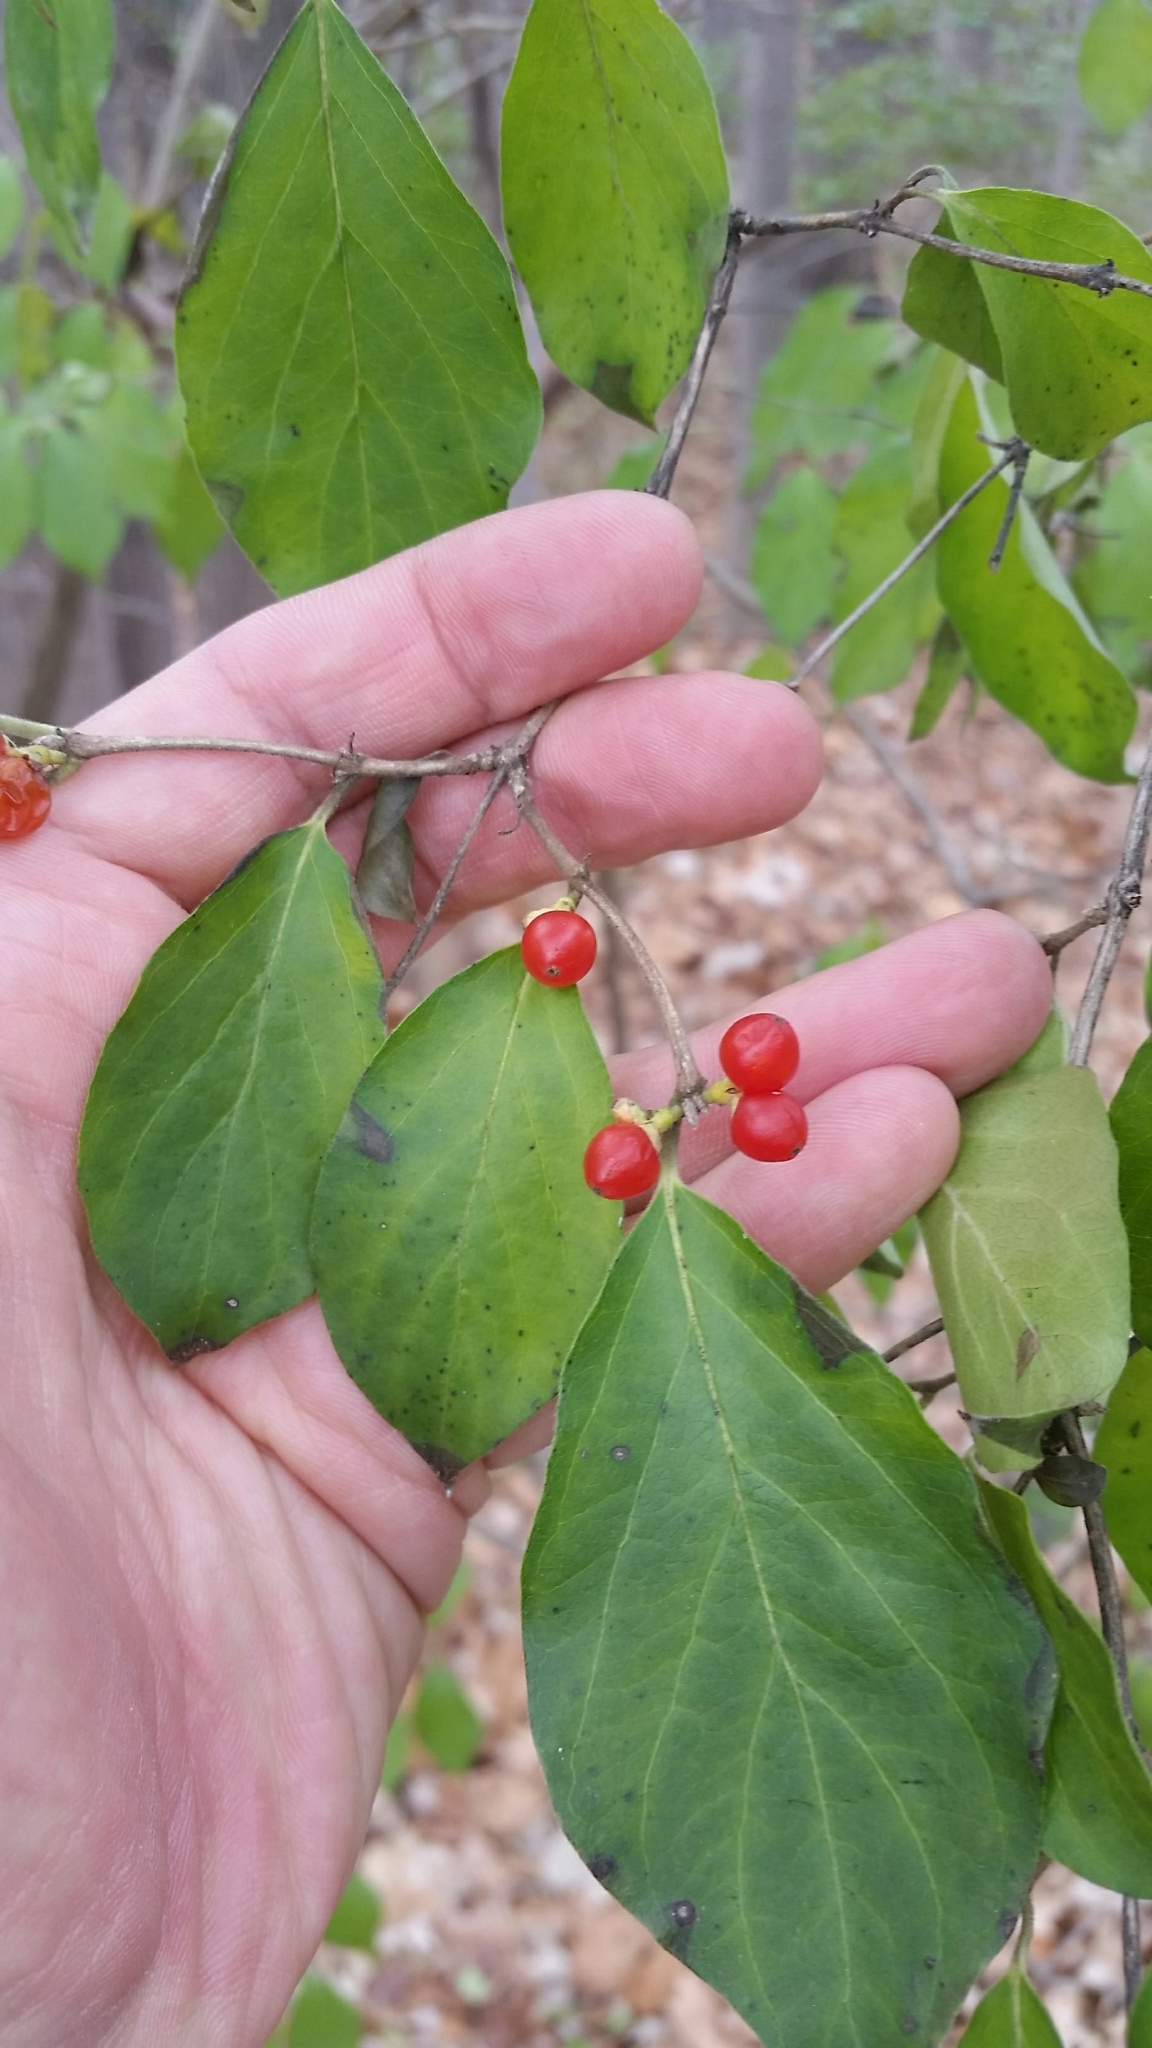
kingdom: Plantae
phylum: Tracheophyta
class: Magnoliopsida
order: Dipsacales
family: Caprifoliaceae
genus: Lonicera
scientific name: Lonicera maackii
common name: Amur honeysuckle
